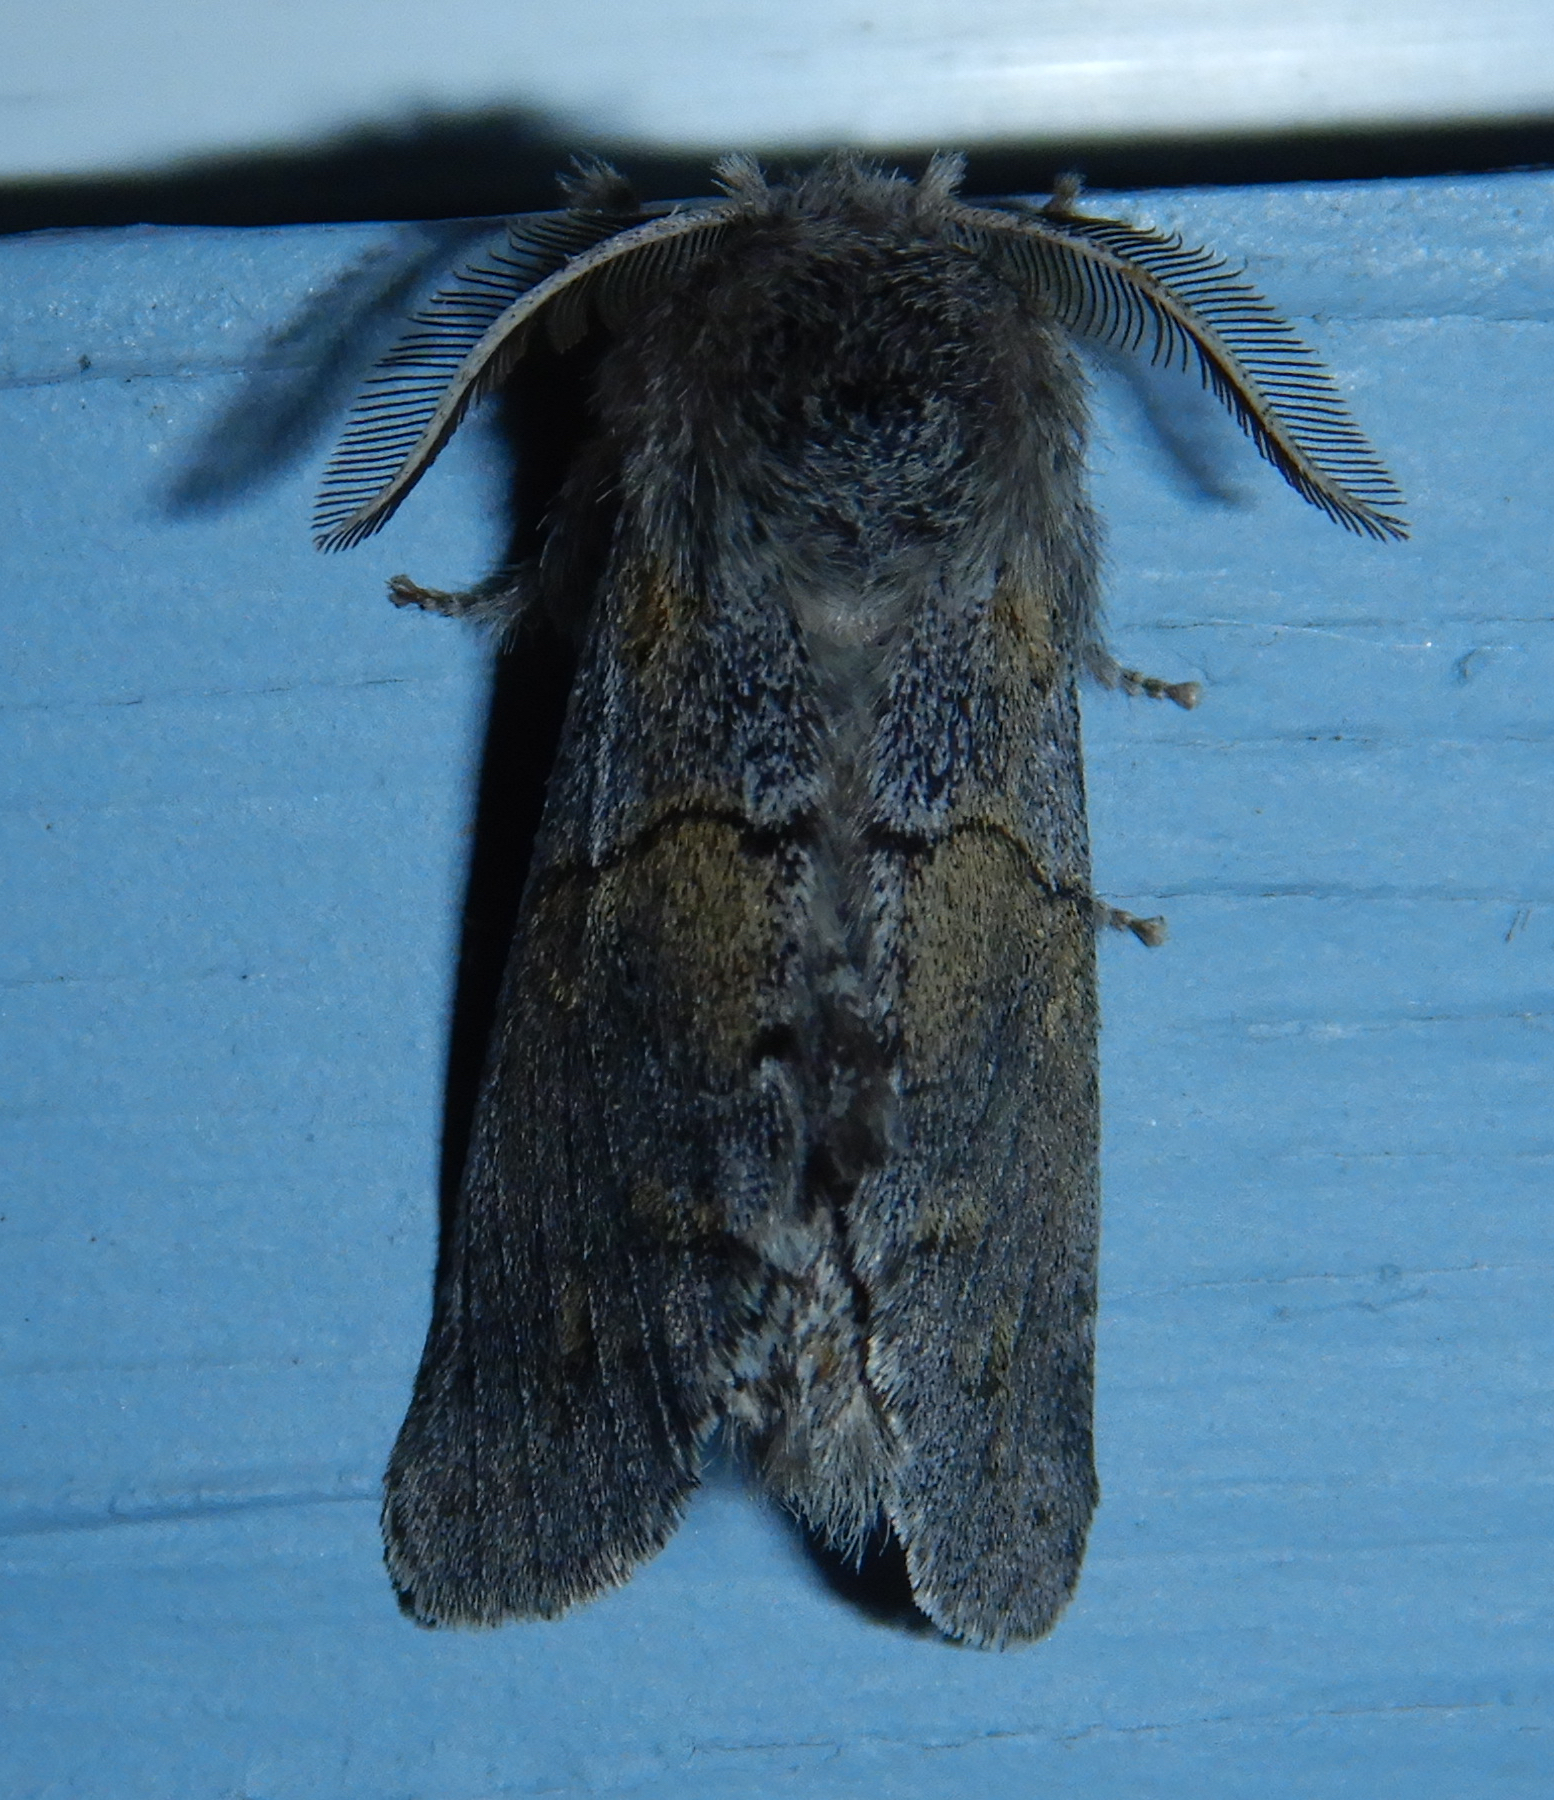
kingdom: Animalia
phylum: Arthropoda
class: Insecta
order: Lepidoptera
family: Notodontidae
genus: Gluphisia
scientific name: Gluphisia lintneri
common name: Lintner's gluphisia moth
